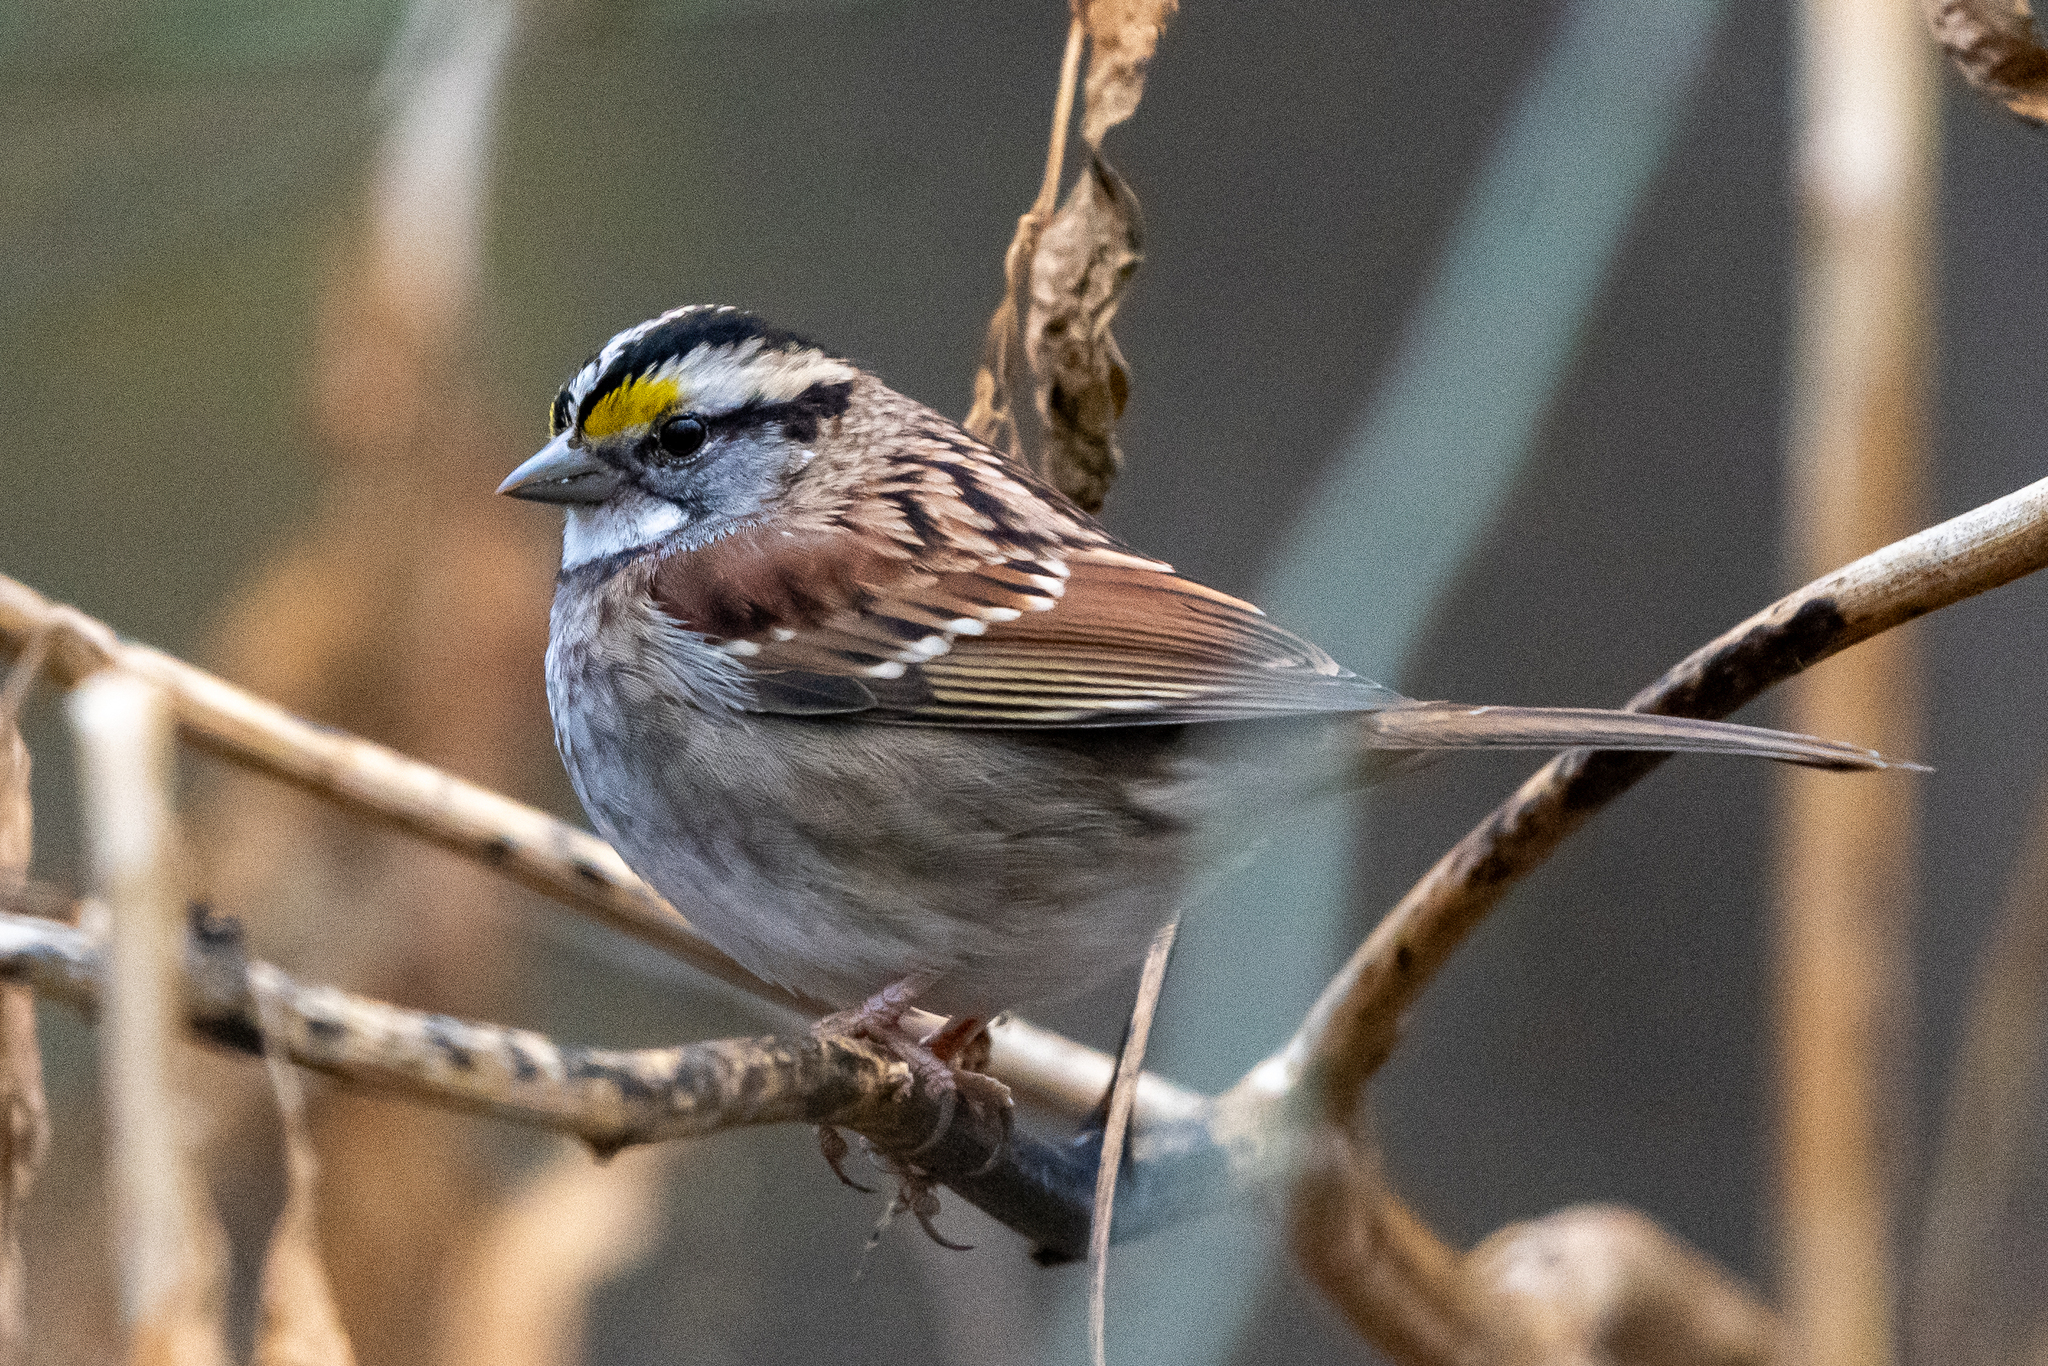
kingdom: Animalia
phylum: Chordata
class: Aves
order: Passeriformes
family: Passerellidae
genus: Zonotrichia
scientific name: Zonotrichia albicollis
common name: White-throated sparrow
